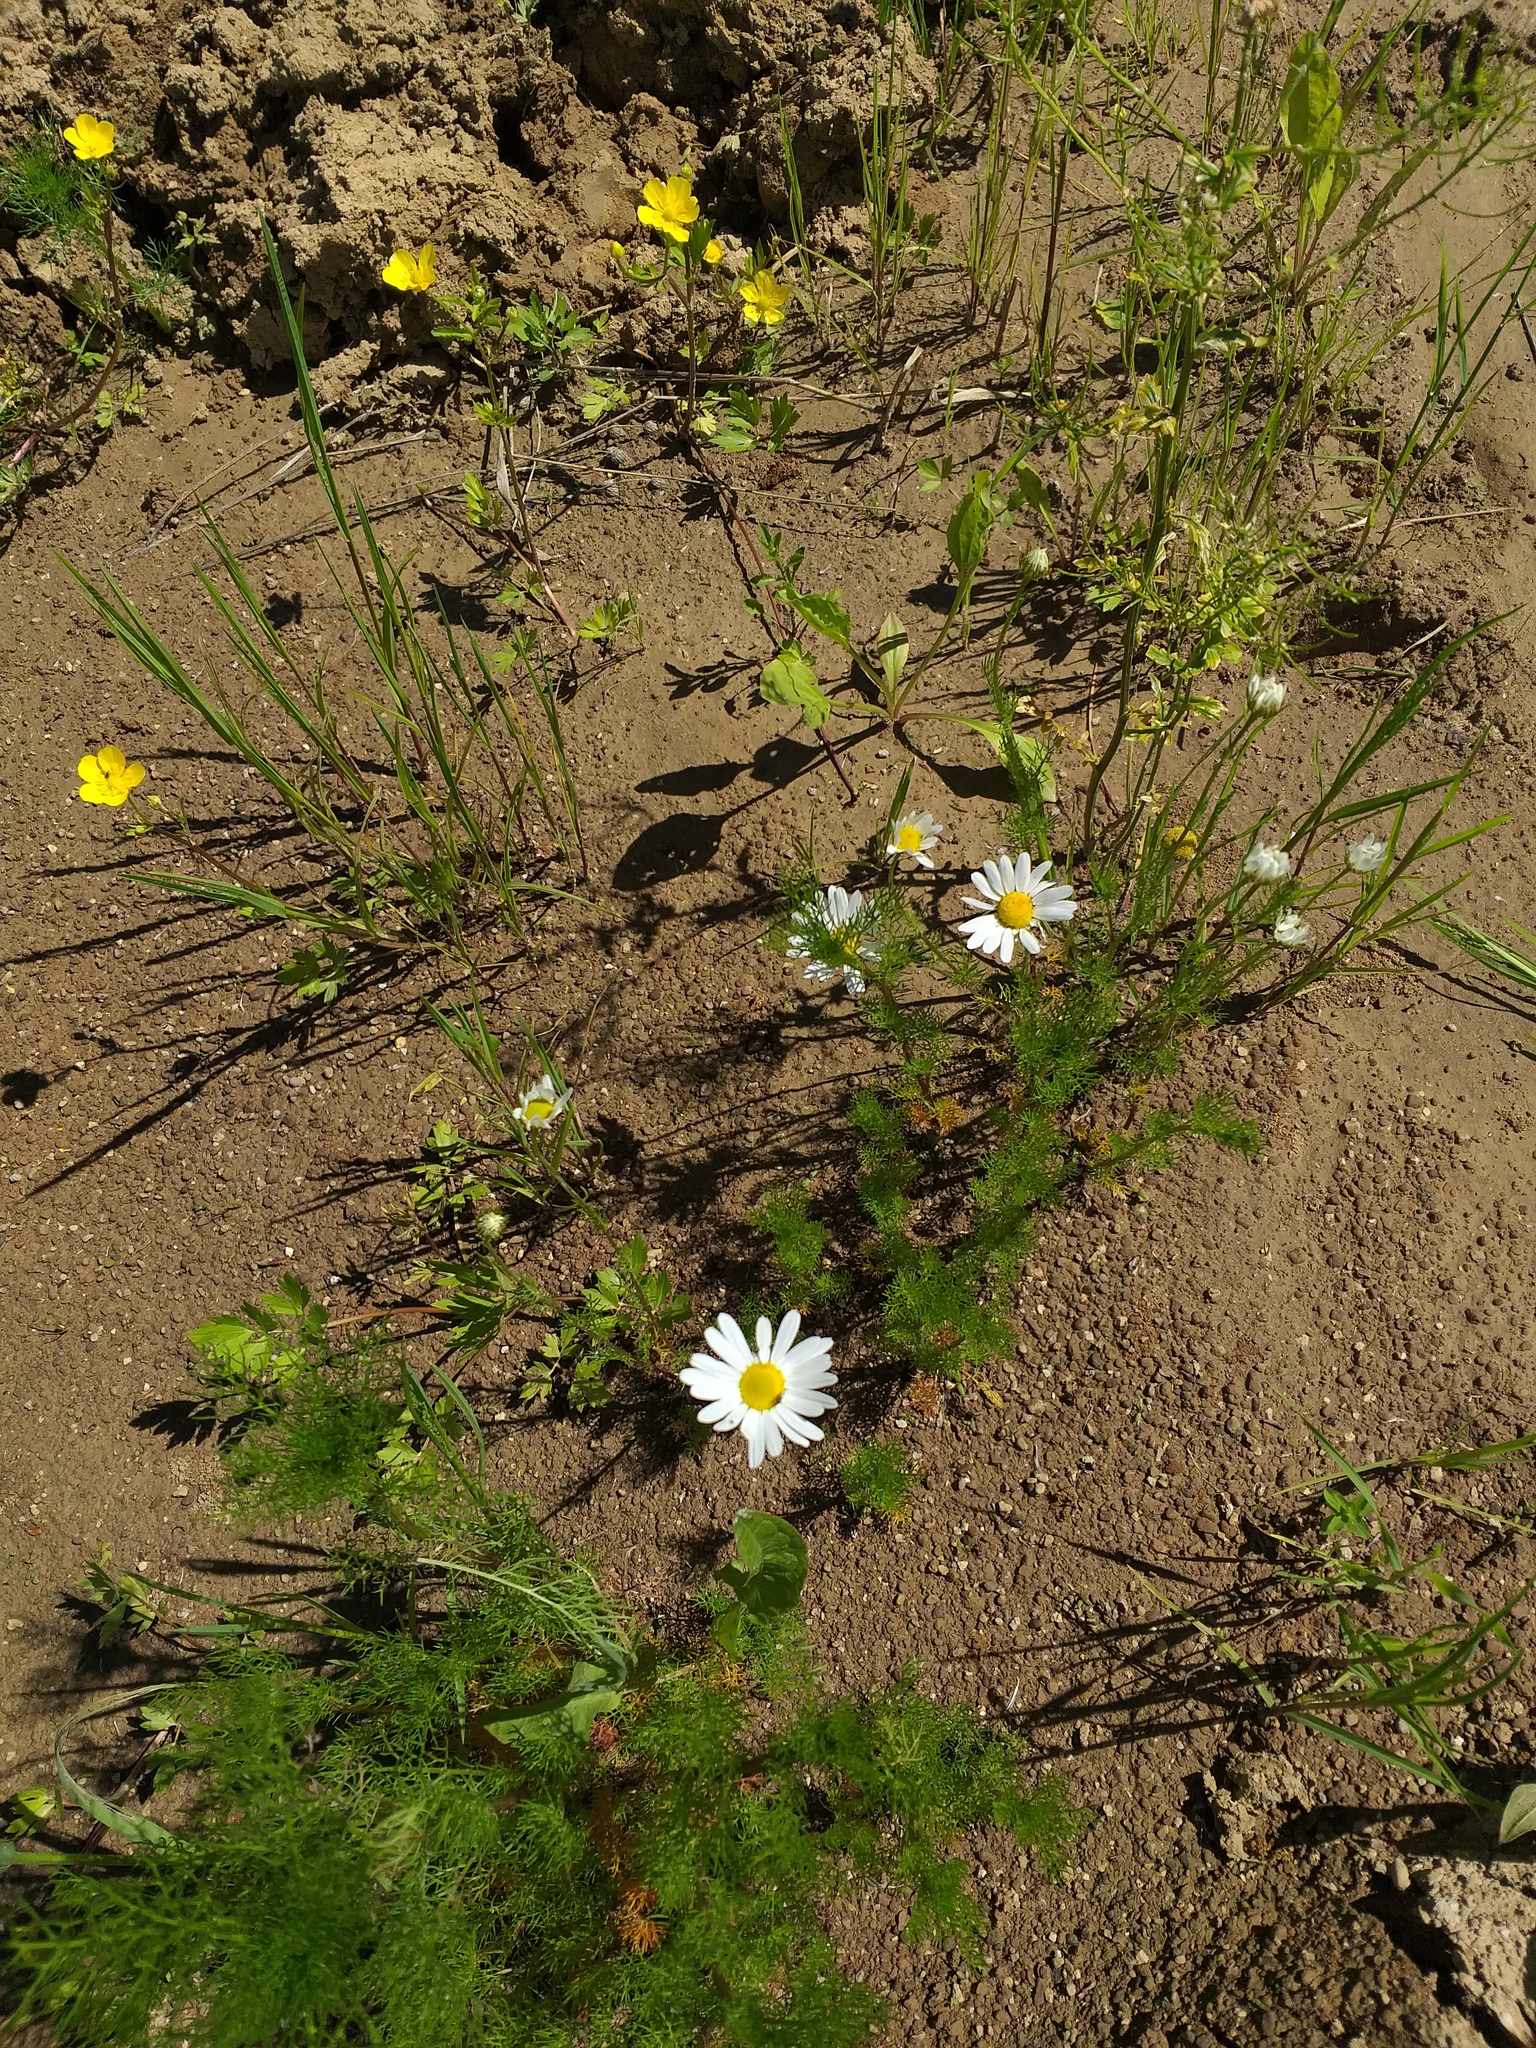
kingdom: Plantae
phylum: Tracheophyta
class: Magnoliopsida
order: Asterales
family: Asteraceae
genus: Tripleurospermum
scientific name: Tripleurospermum inodorum
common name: Scentless mayweed
